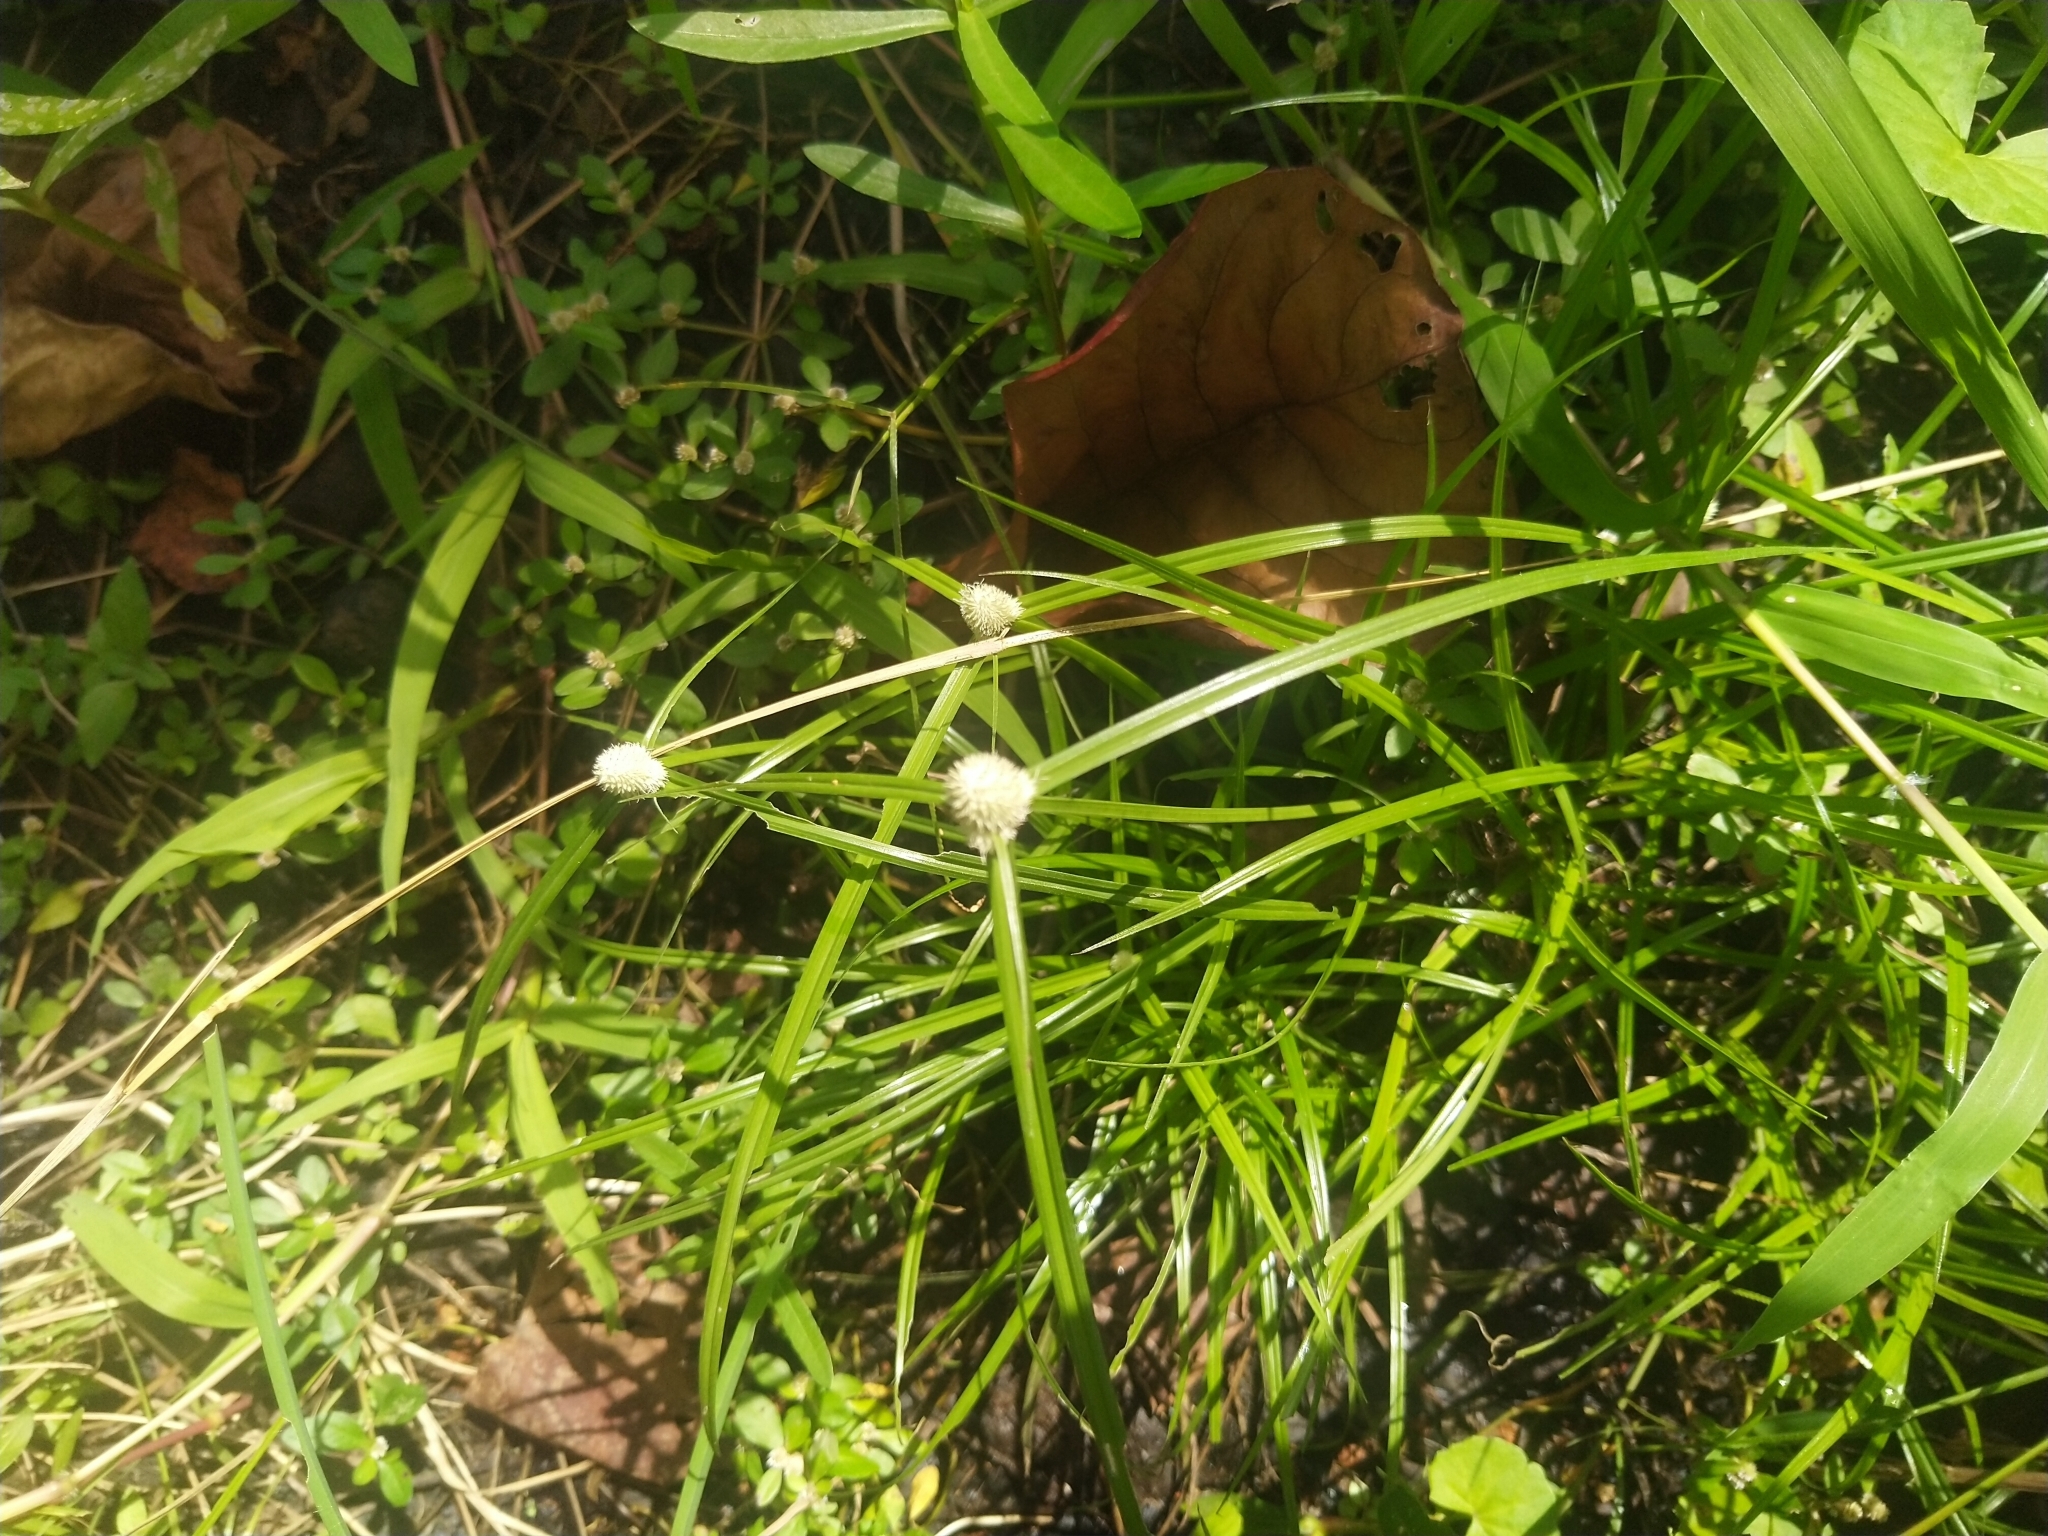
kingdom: Plantae
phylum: Tracheophyta
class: Liliopsida
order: Poales
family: Cyperaceae
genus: Cyperus
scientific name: Cyperus mindorensis
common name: Flatsedge
